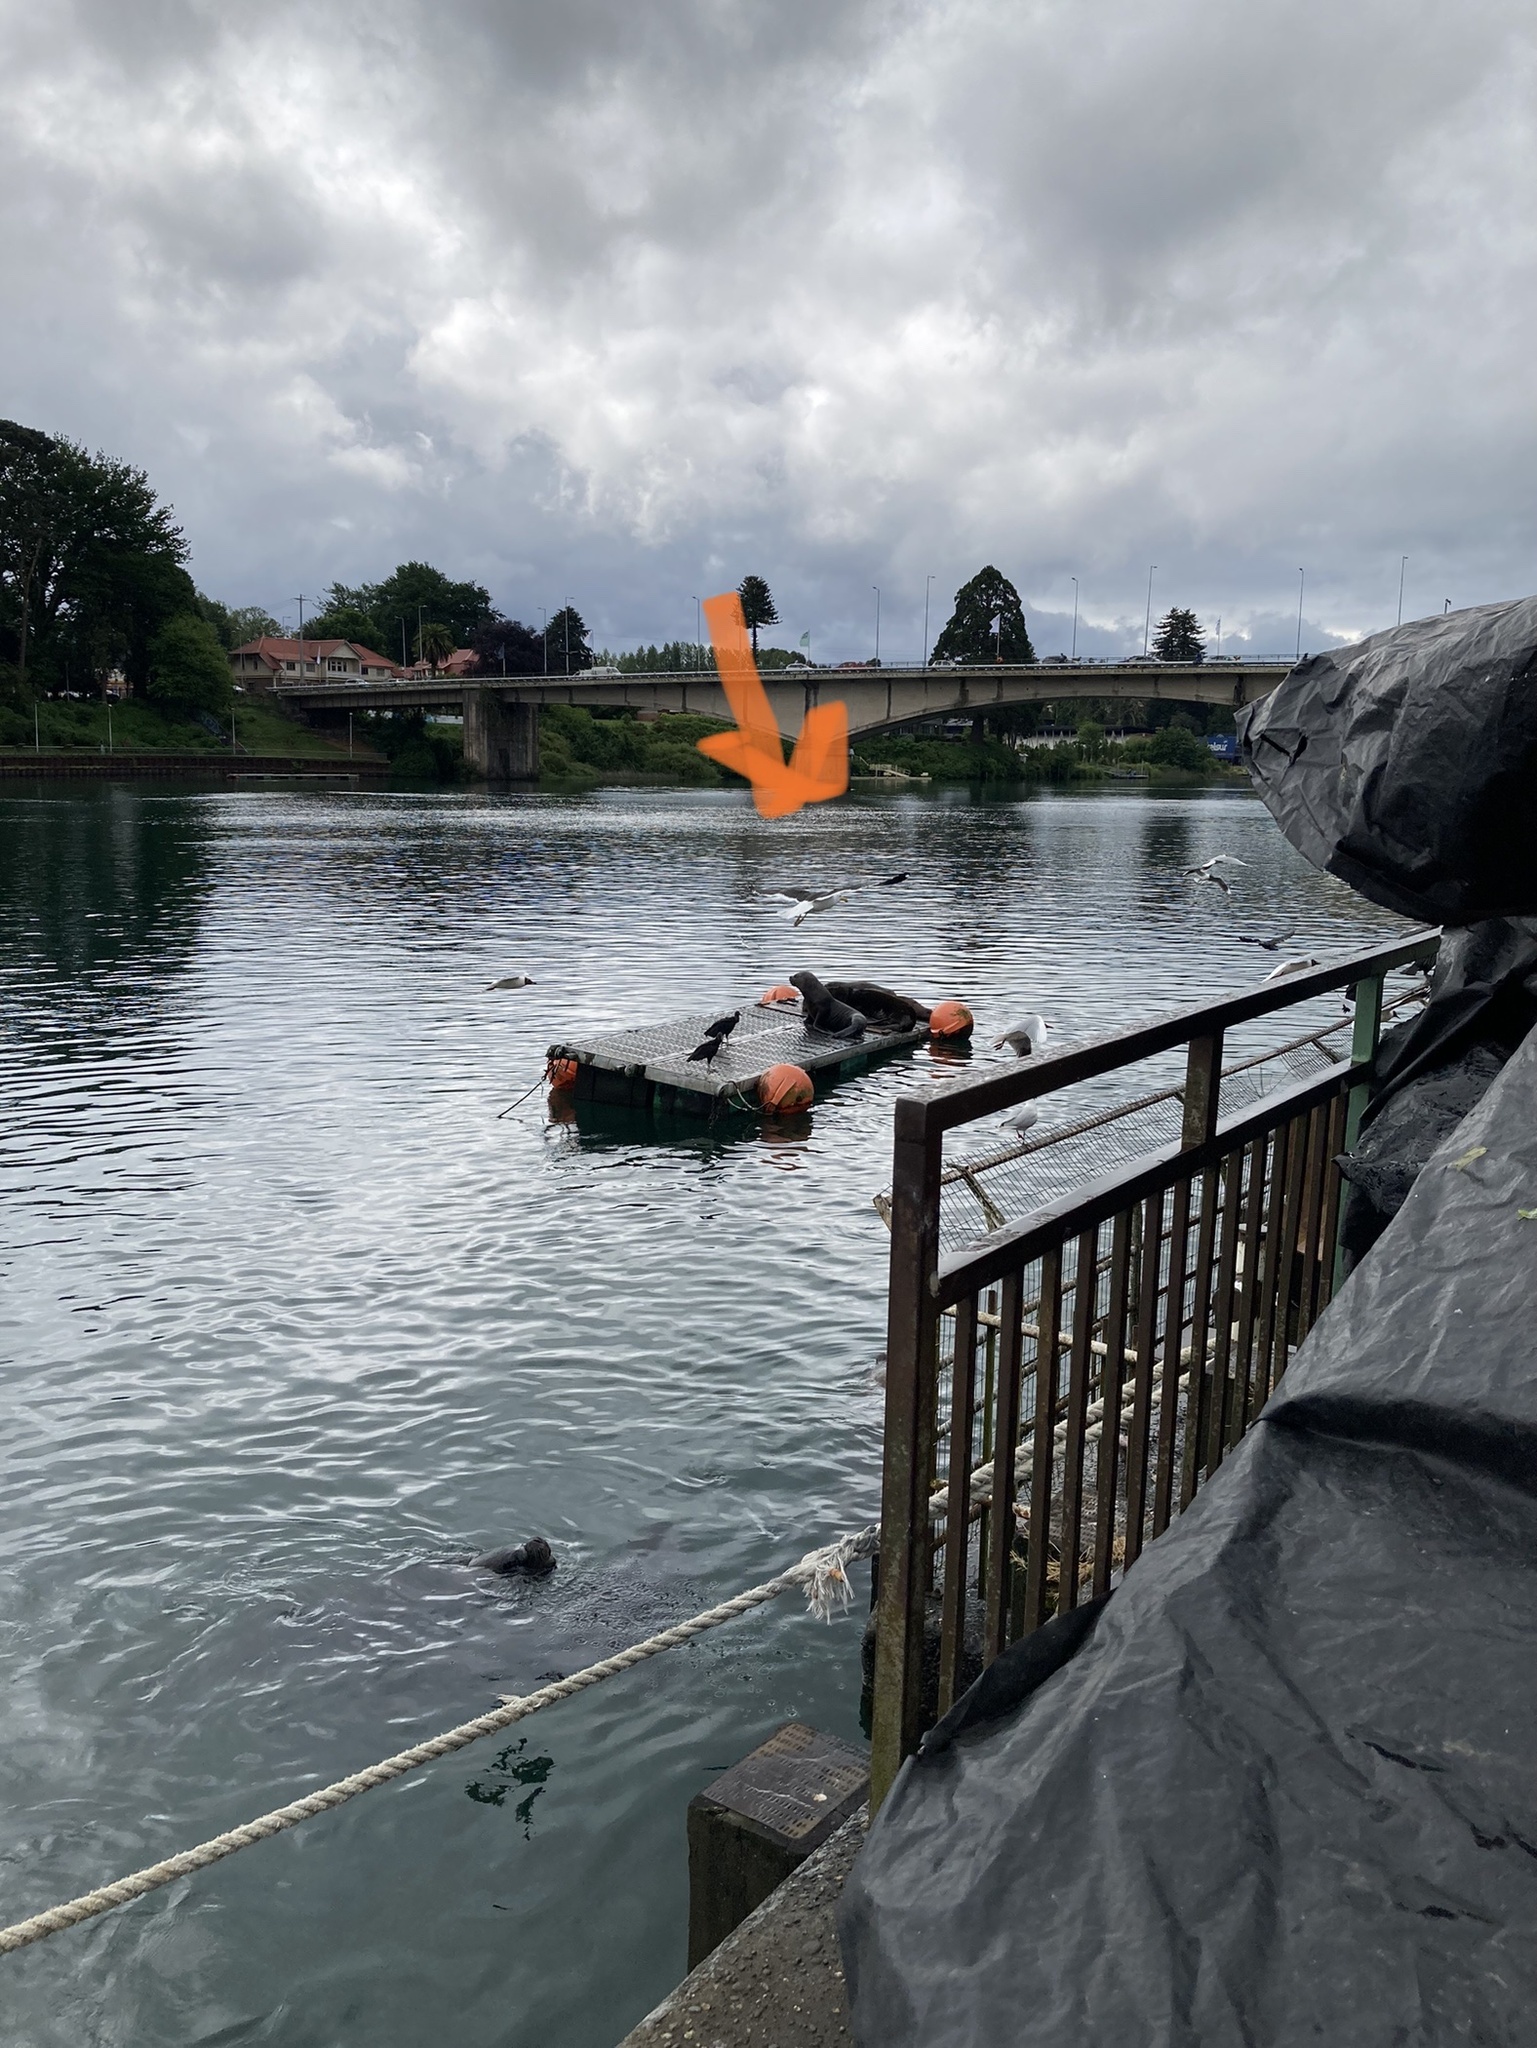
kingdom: Animalia
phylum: Chordata
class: Aves
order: Charadriiformes
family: Laridae
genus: Larus
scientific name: Larus dominicanus
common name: Kelp gull
